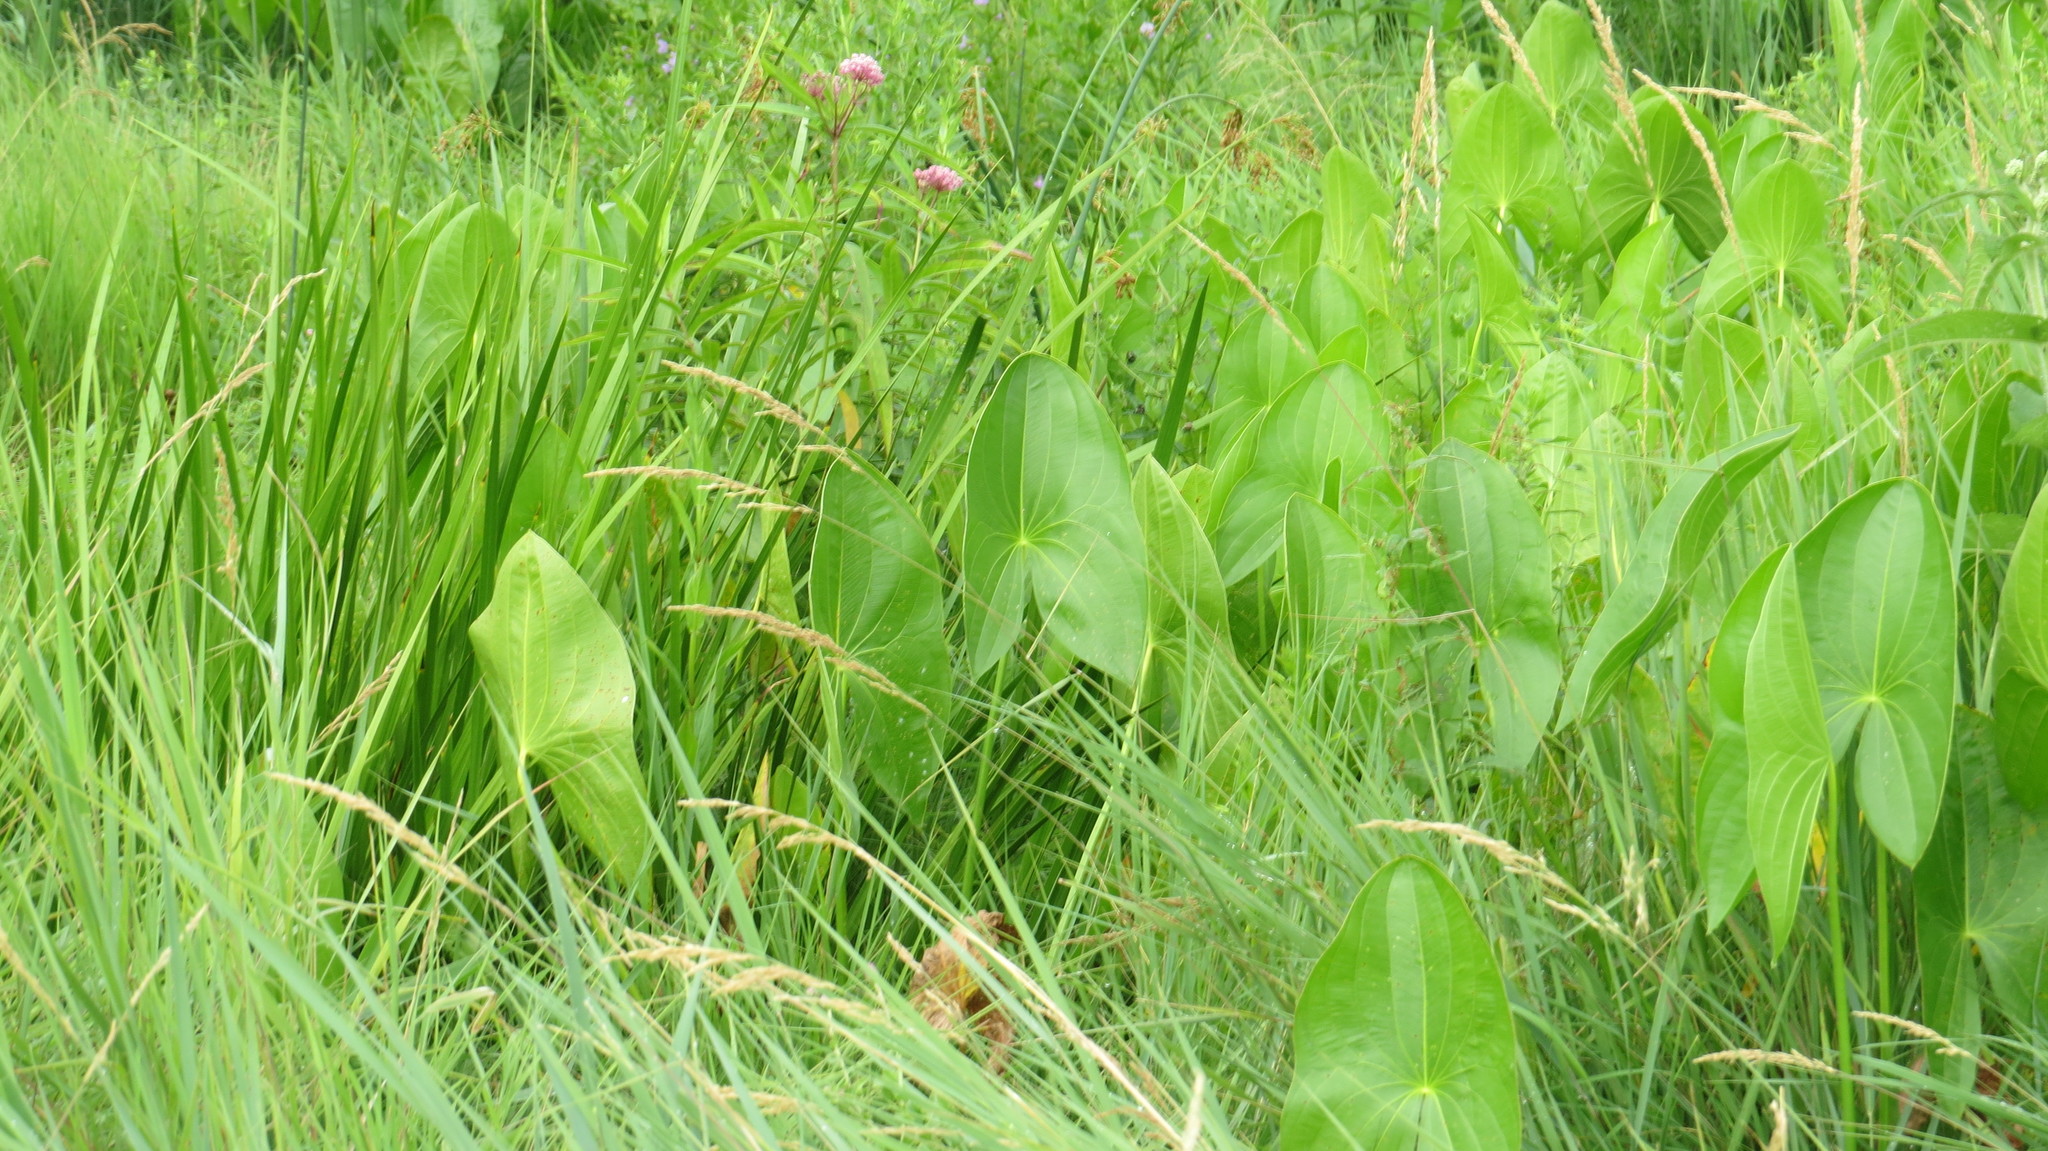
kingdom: Plantae
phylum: Tracheophyta
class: Liliopsida
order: Alismatales
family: Alismataceae
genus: Sagittaria
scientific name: Sagittaria latifolia
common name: Duck-potato
